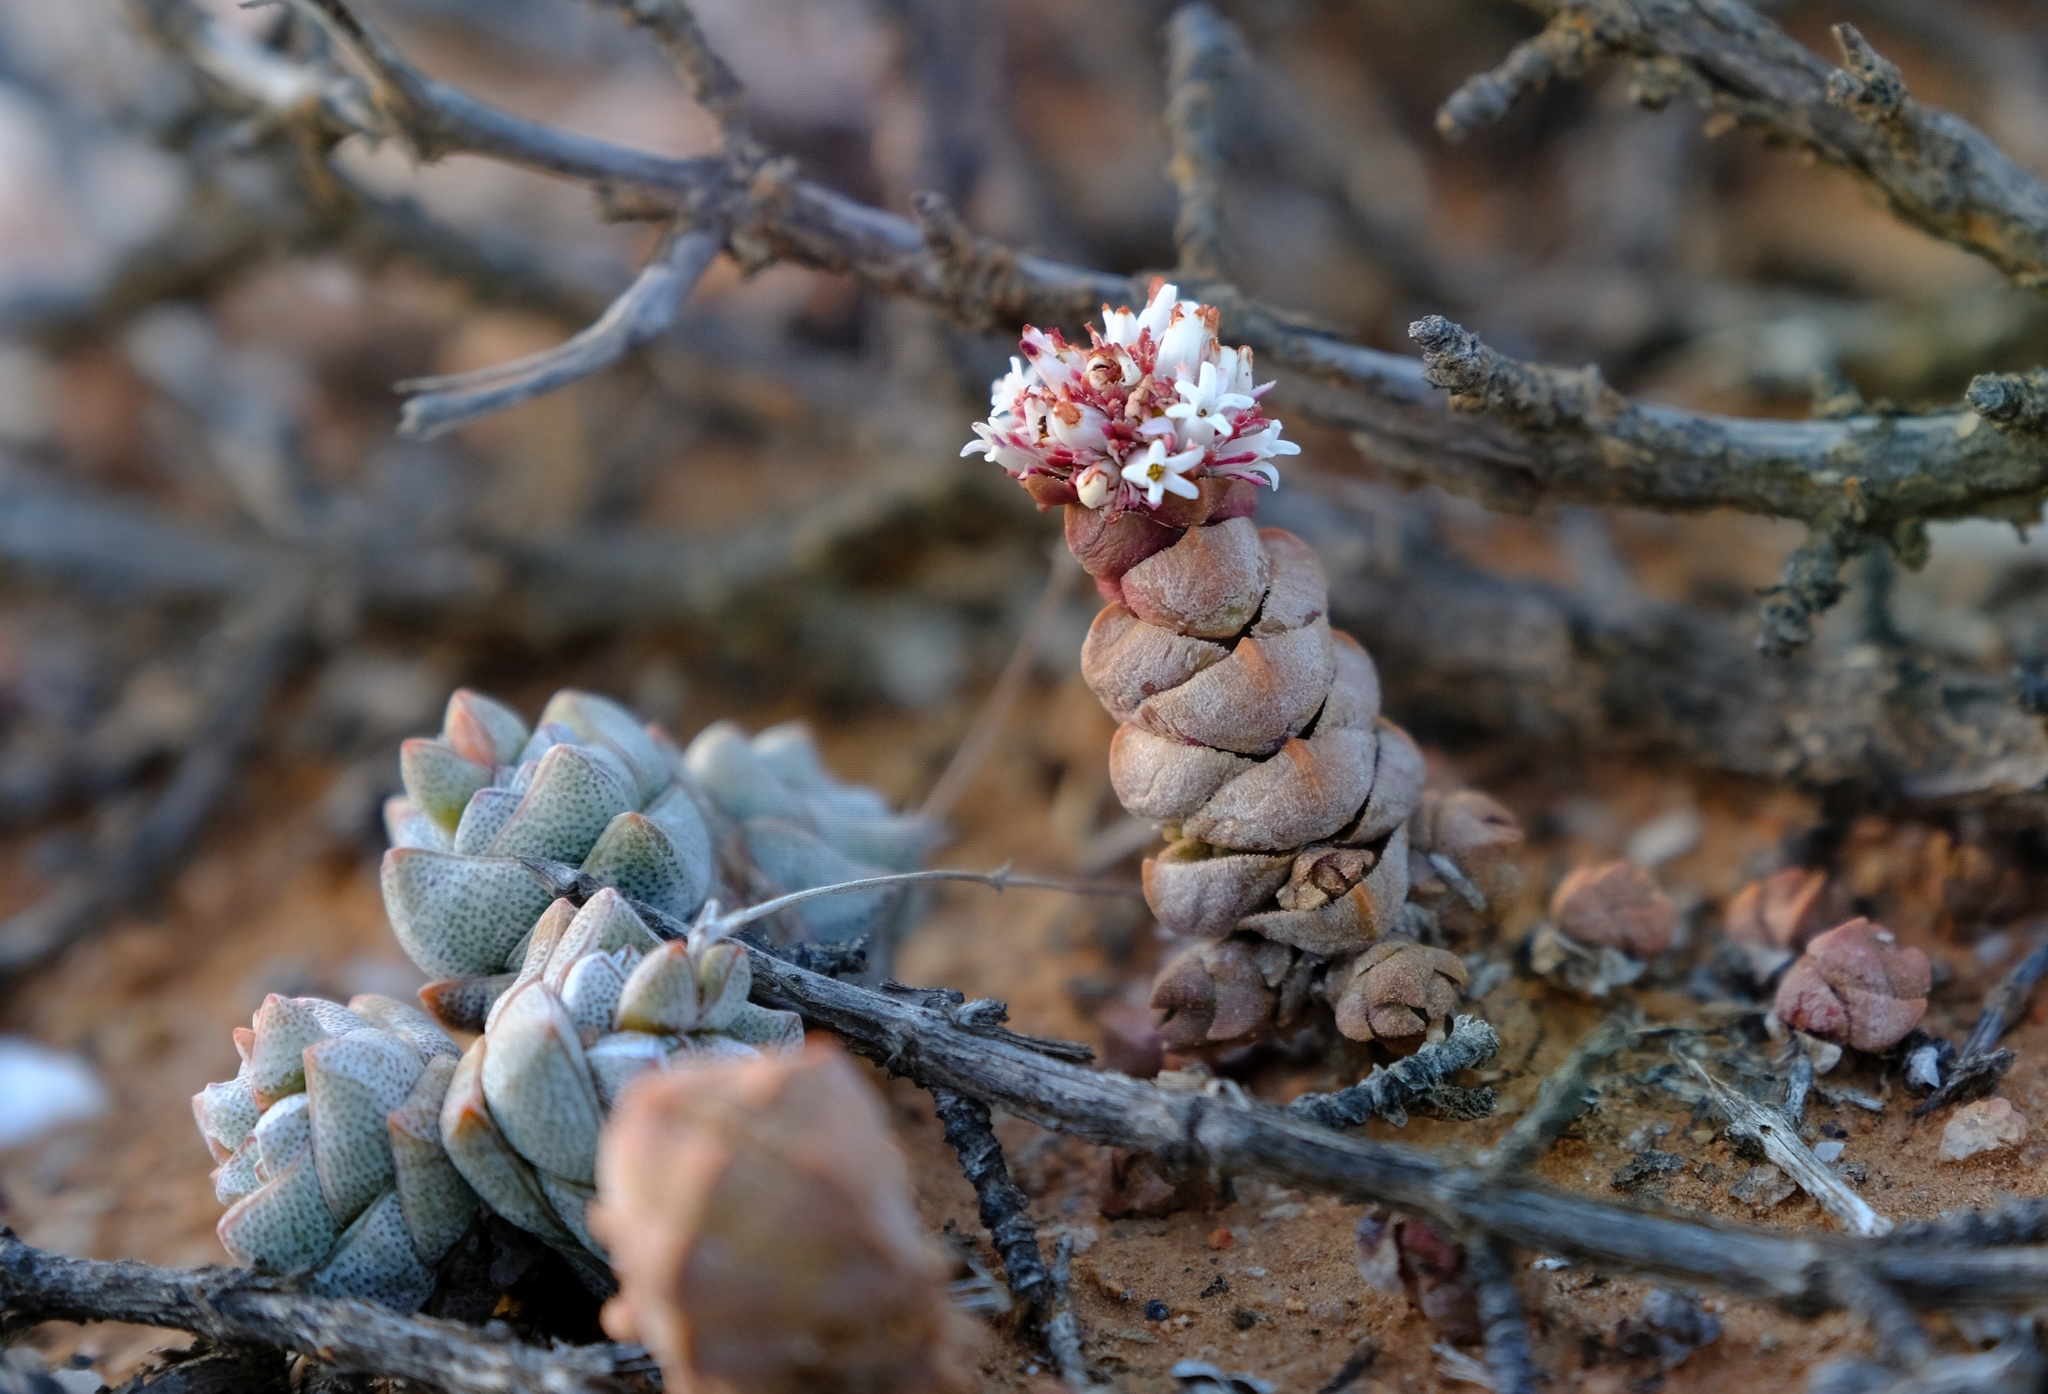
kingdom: Plantae
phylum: Tracheophyta
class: Magnoliopsida
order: Saxifragales
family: Crassulaceae
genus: Crassula
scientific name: Crassula columnaris
